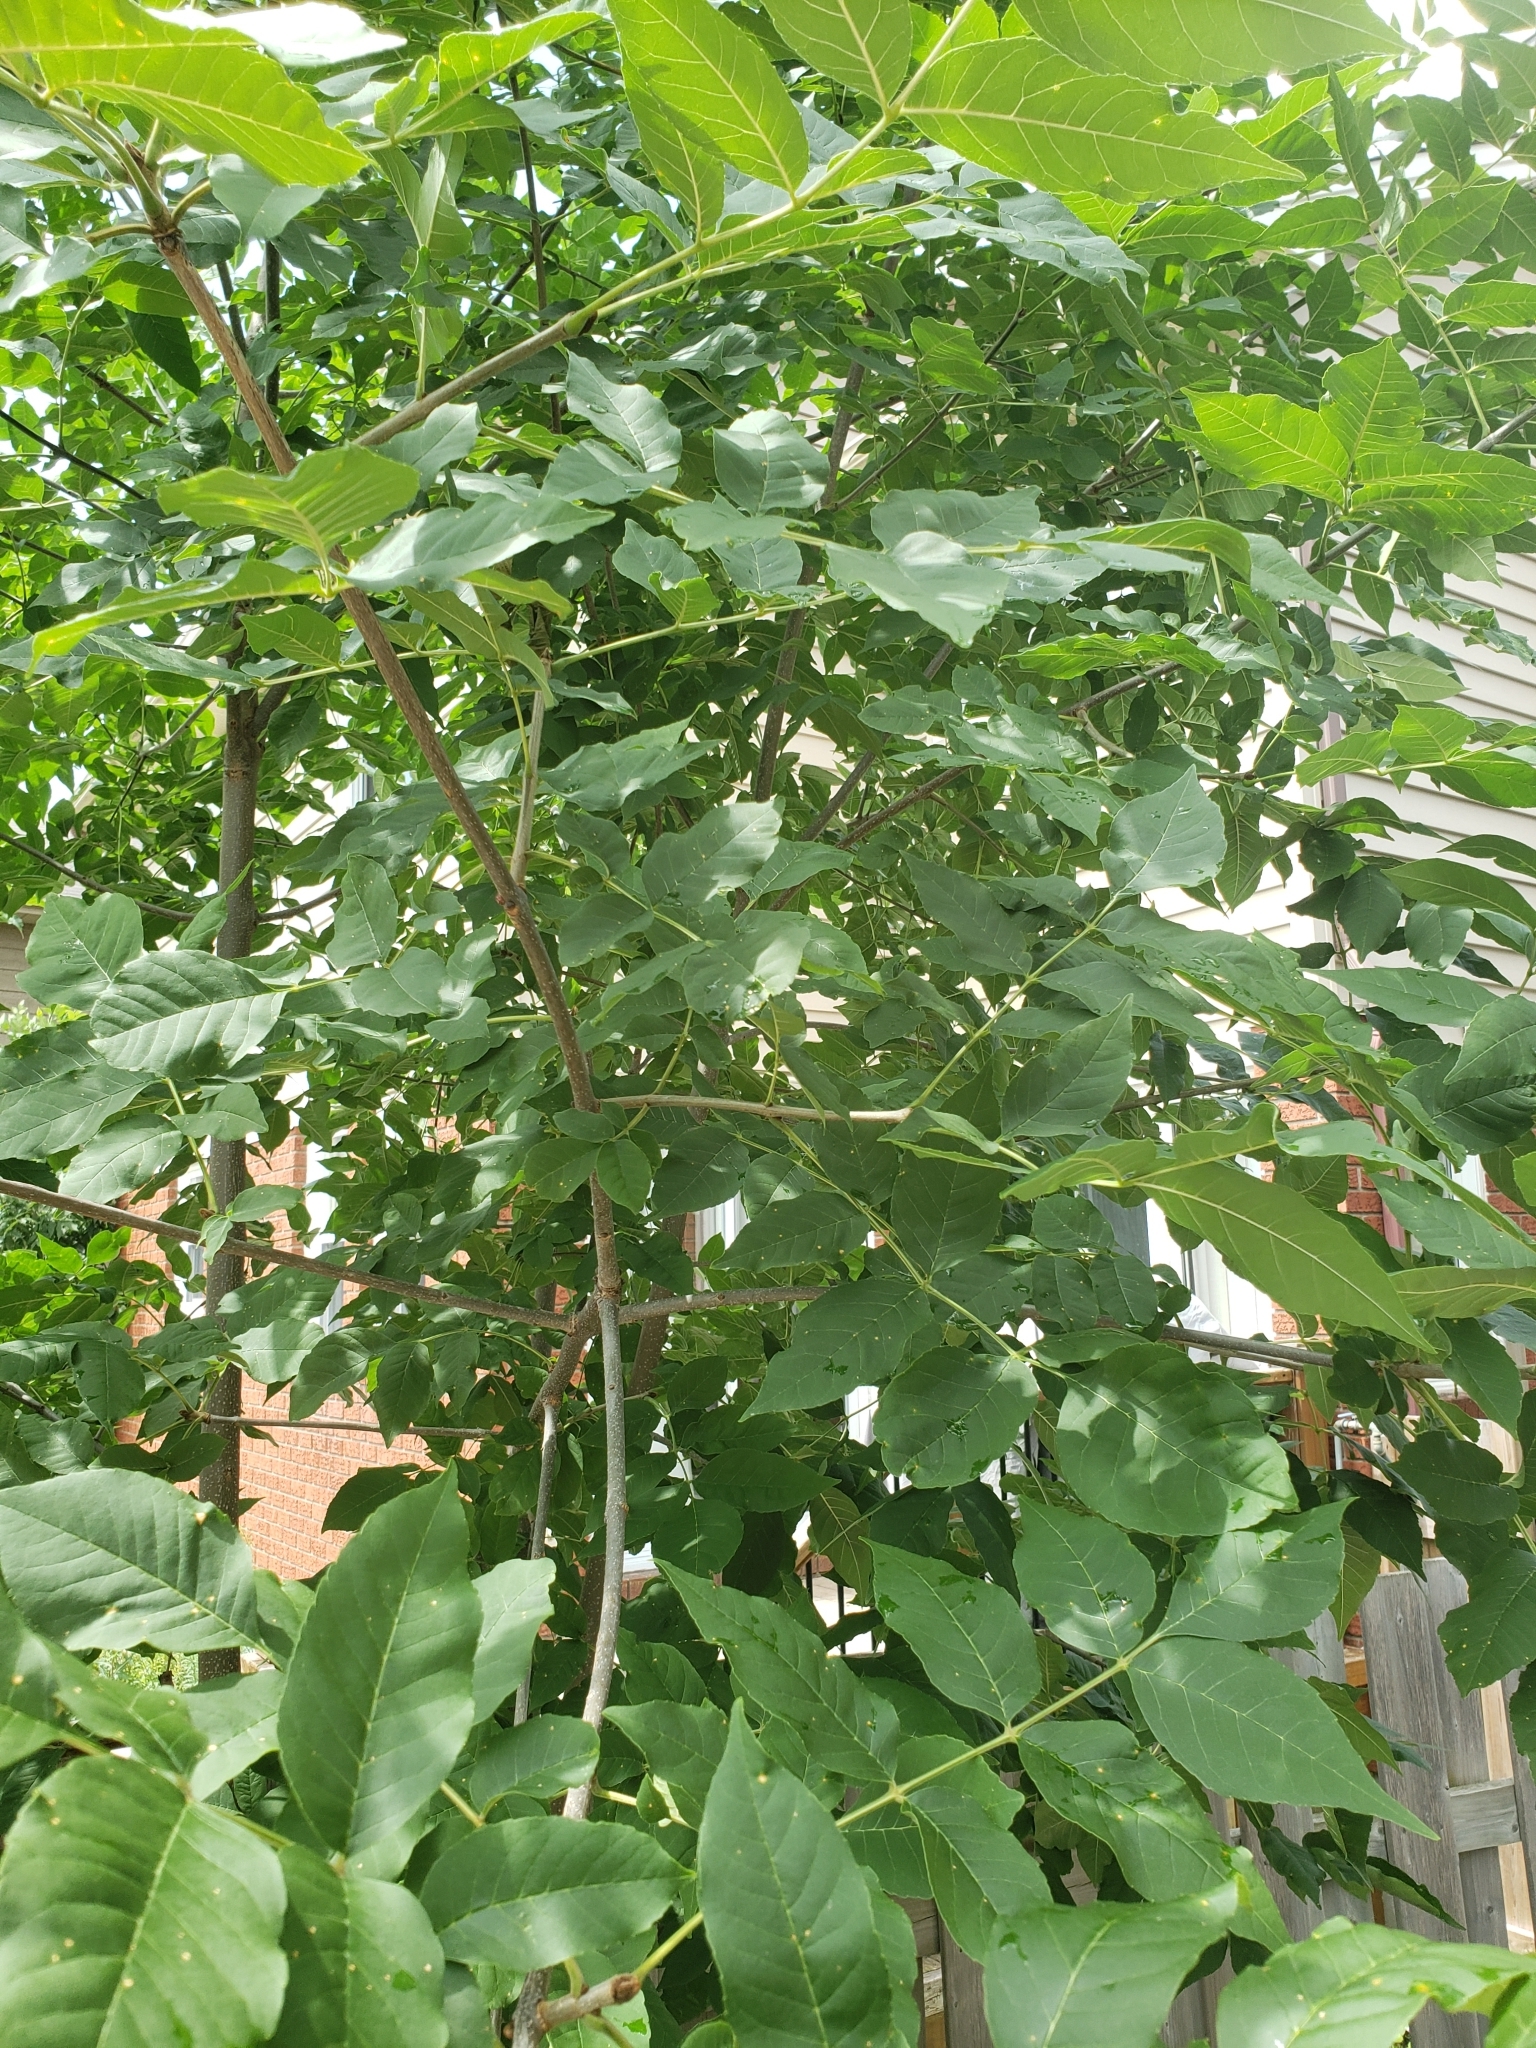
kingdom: Plantae
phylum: Tracheophyta
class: Magnoliopsida
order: Lamiales
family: Oleaceae
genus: Fraxinus
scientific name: Fraxinus pennsylvanica
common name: Green ash
